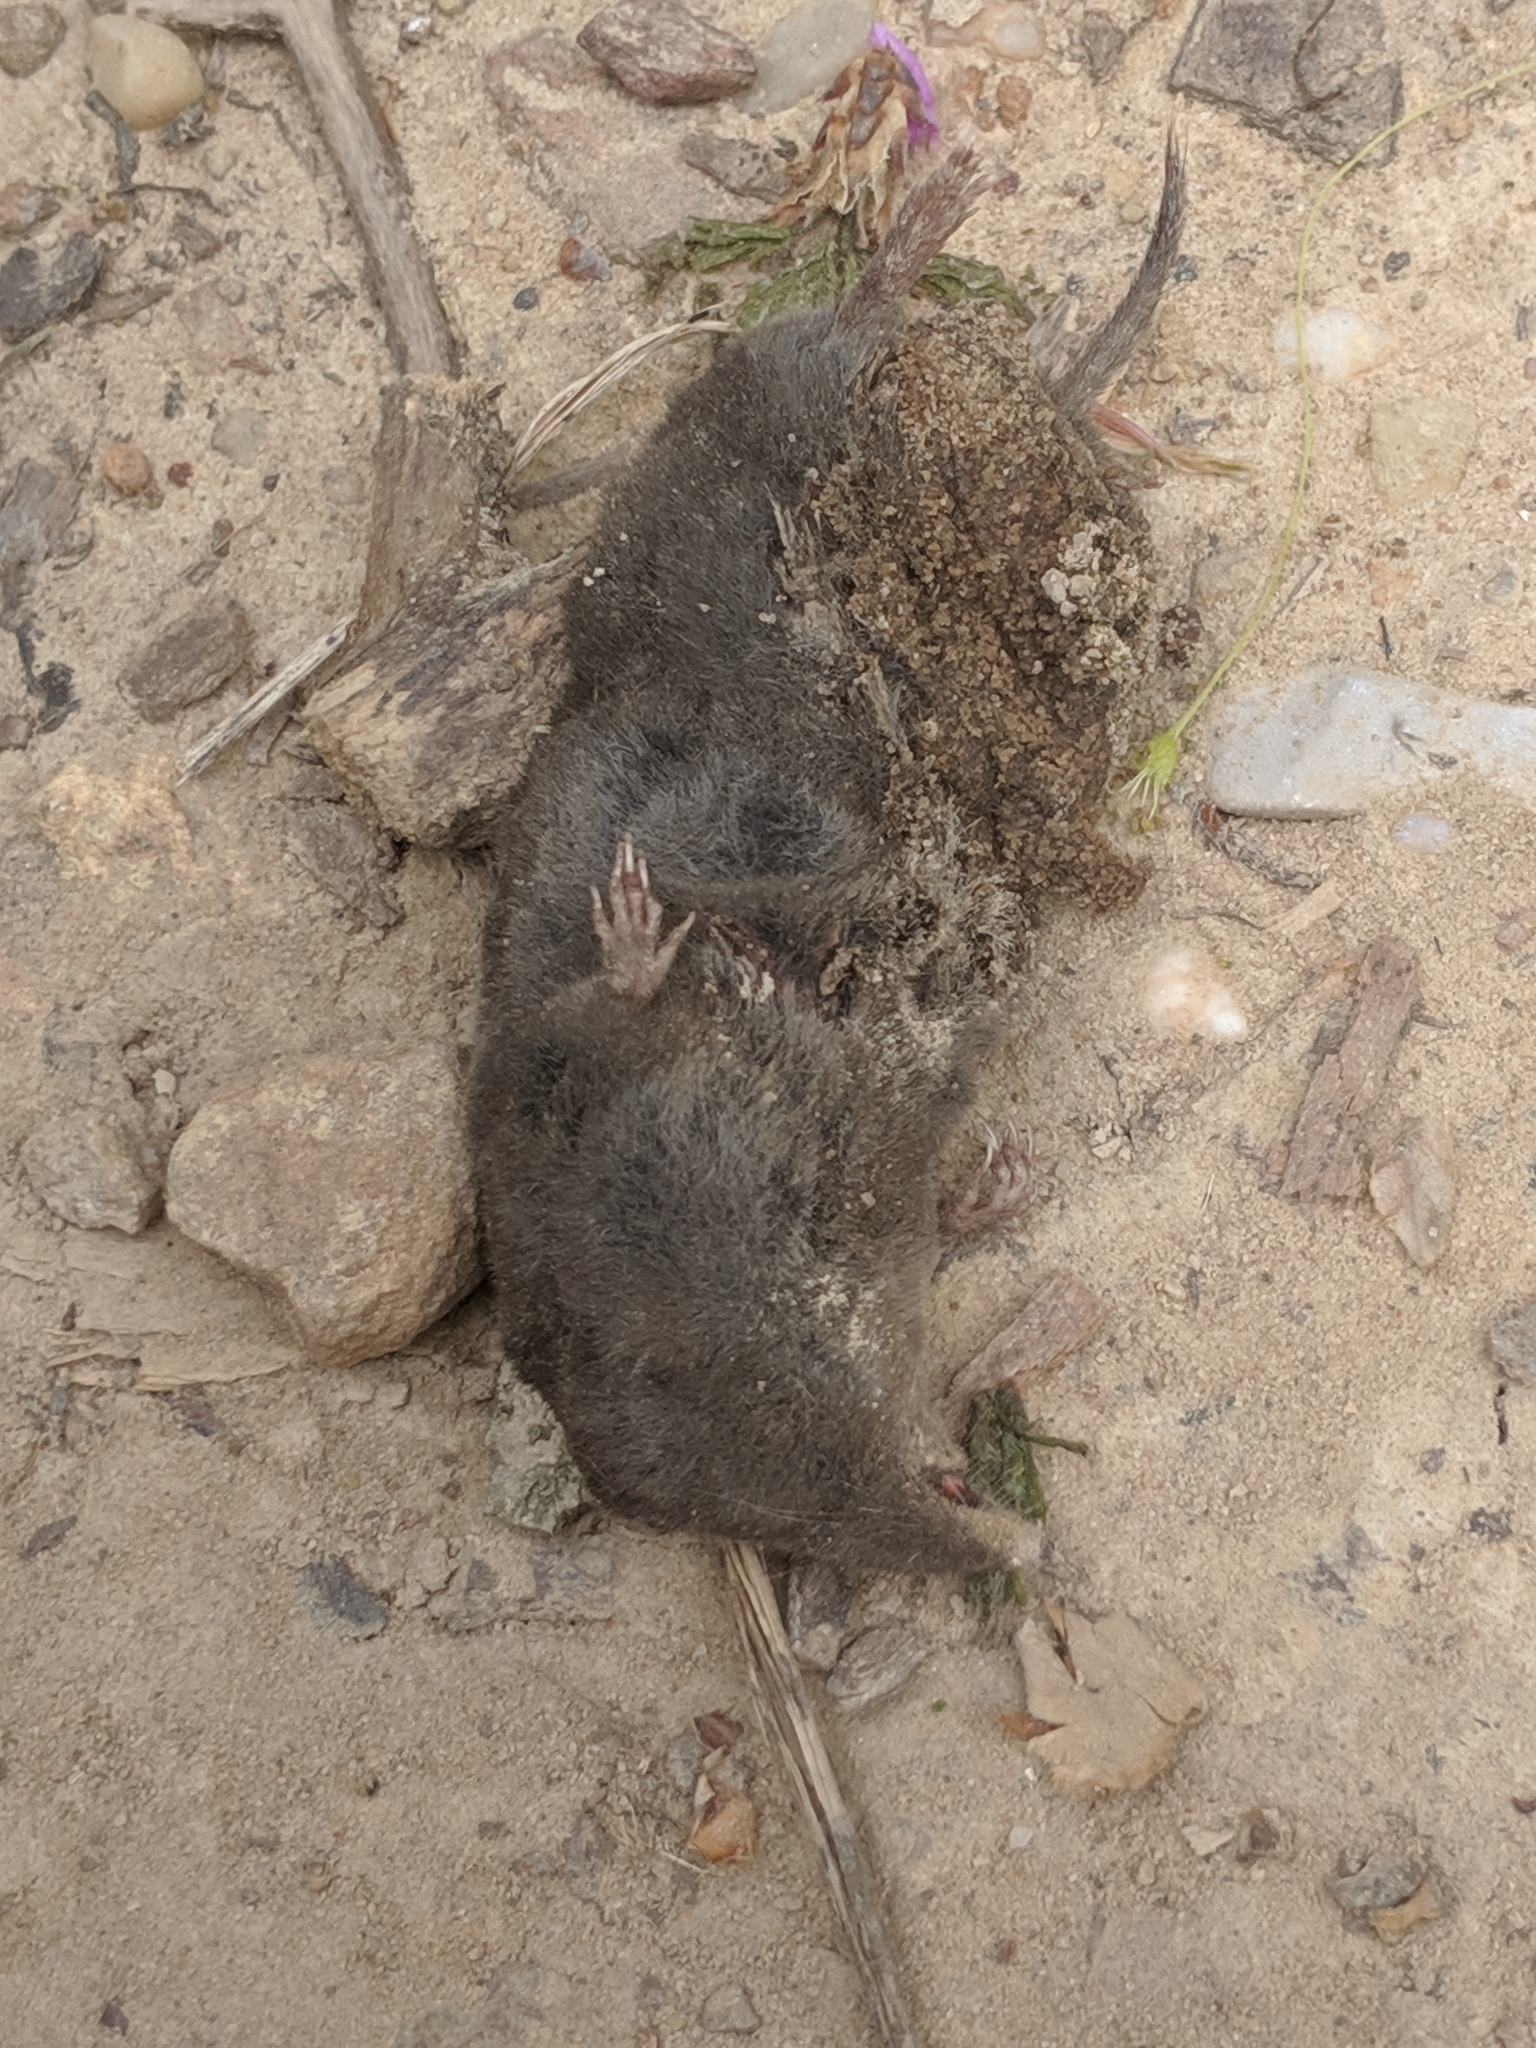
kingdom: Animalia
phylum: Chordata
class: Mammalia
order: Soricomorpha
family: Soricidae
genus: Blarina
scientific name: Blarina brevicauda
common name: Northern short-tailed shrew
